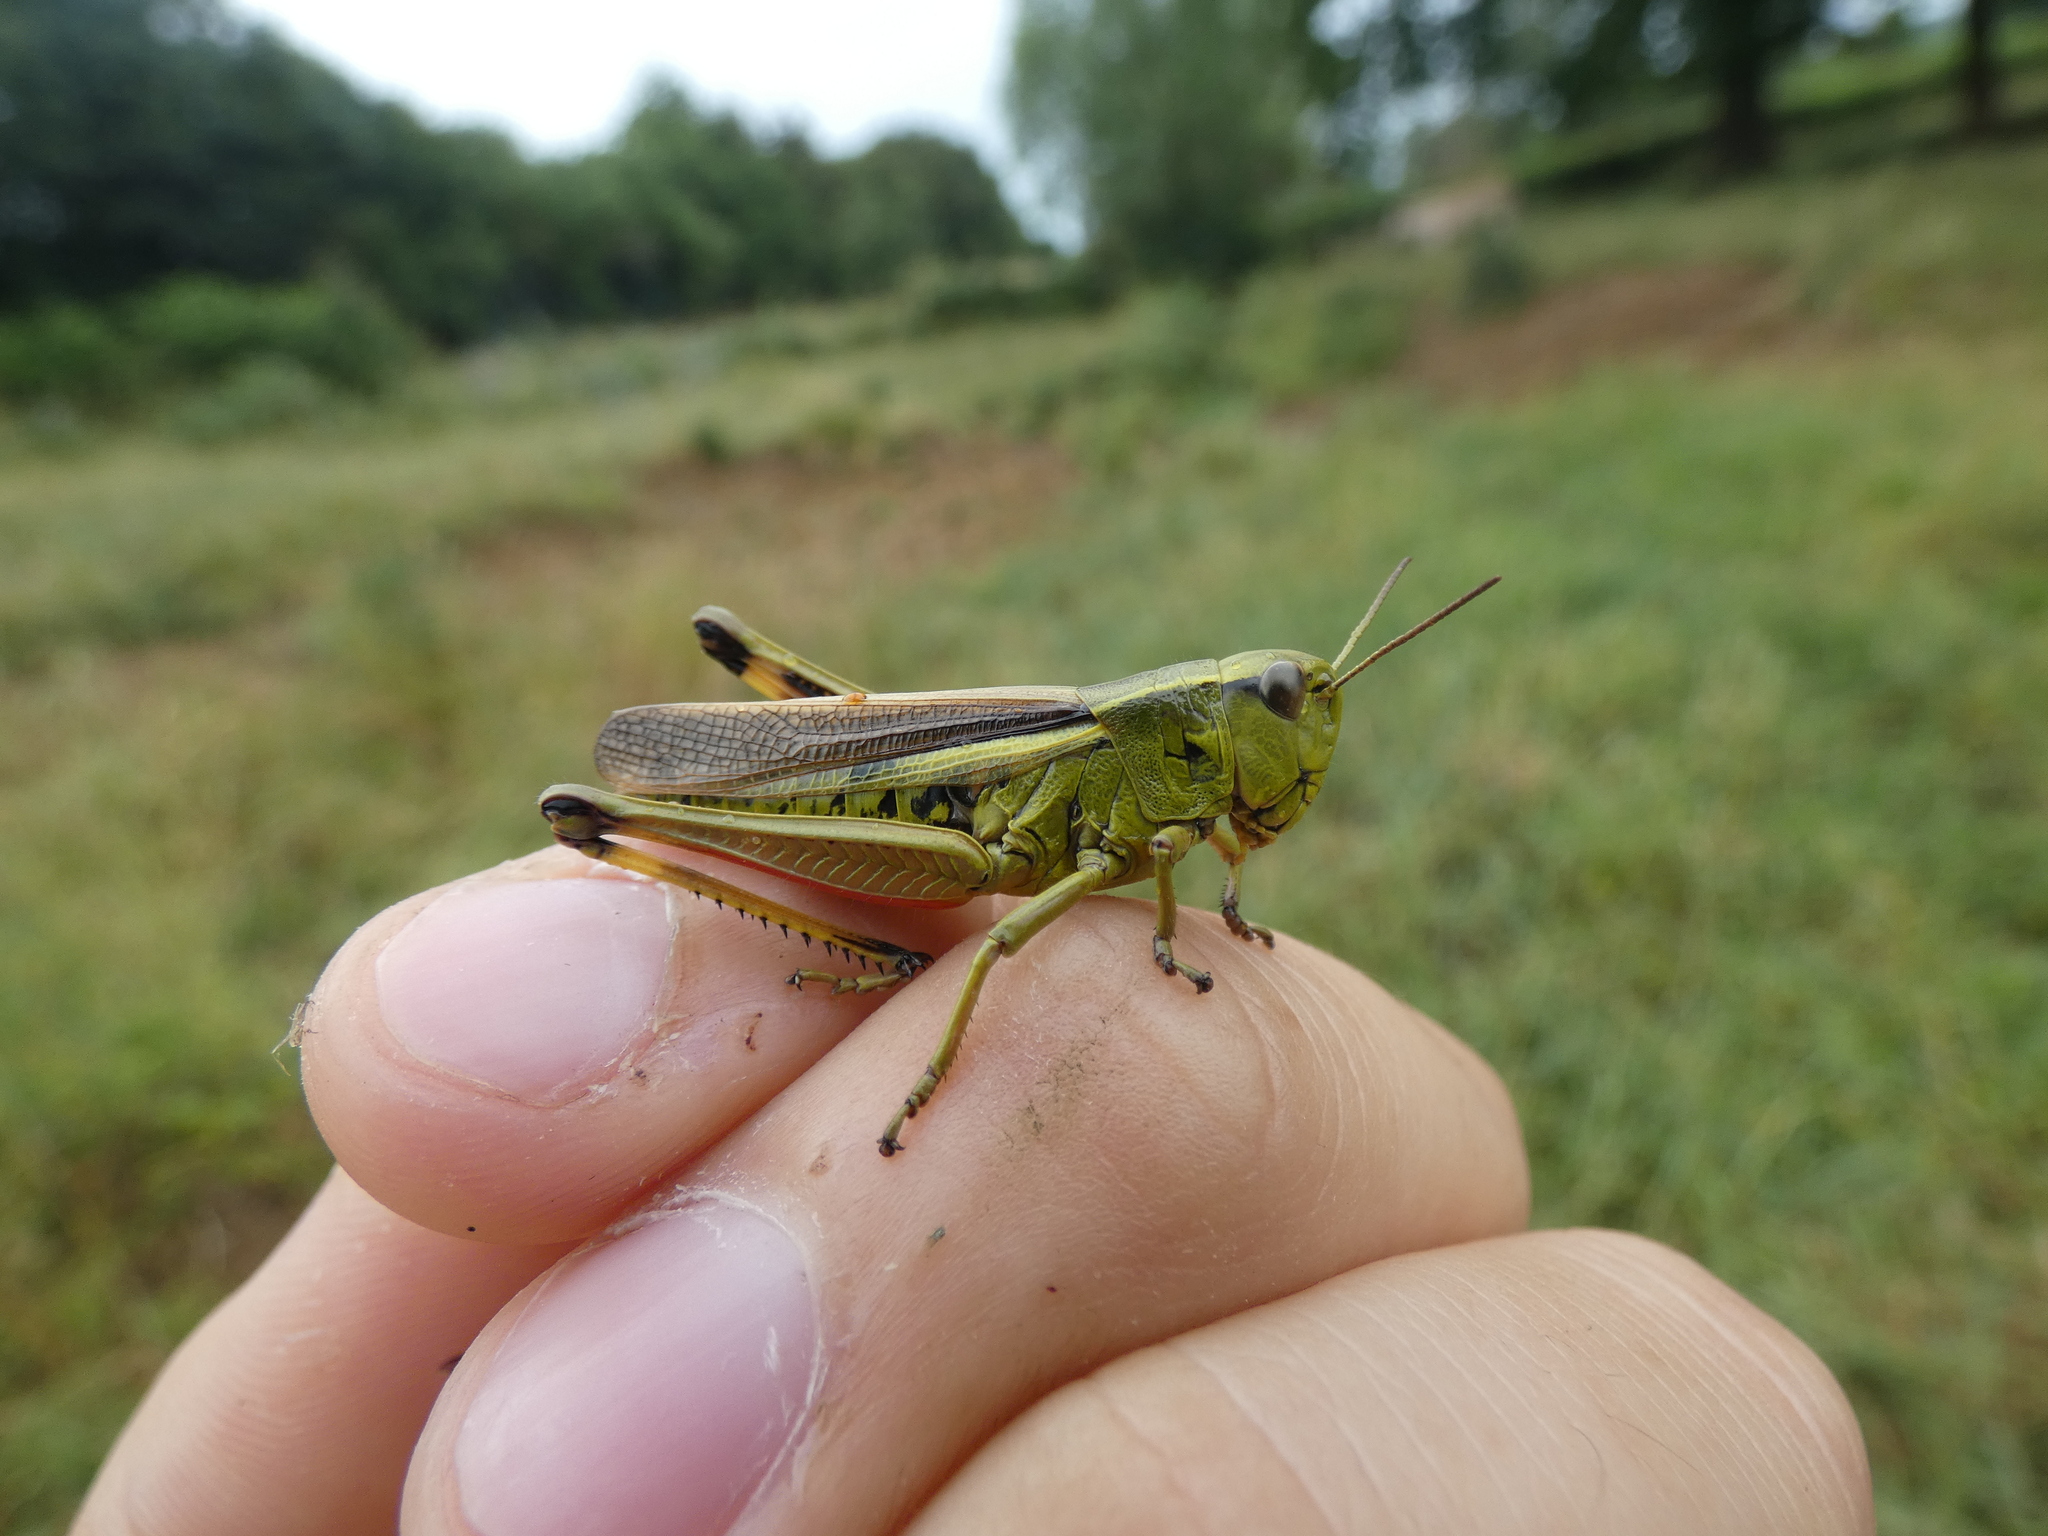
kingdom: Animalia
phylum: Arthropoda
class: Insecta
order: Orthoptera
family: Acrididae
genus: Stethophyma
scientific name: Stethophyma grossum
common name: Large marsh grasshopper
